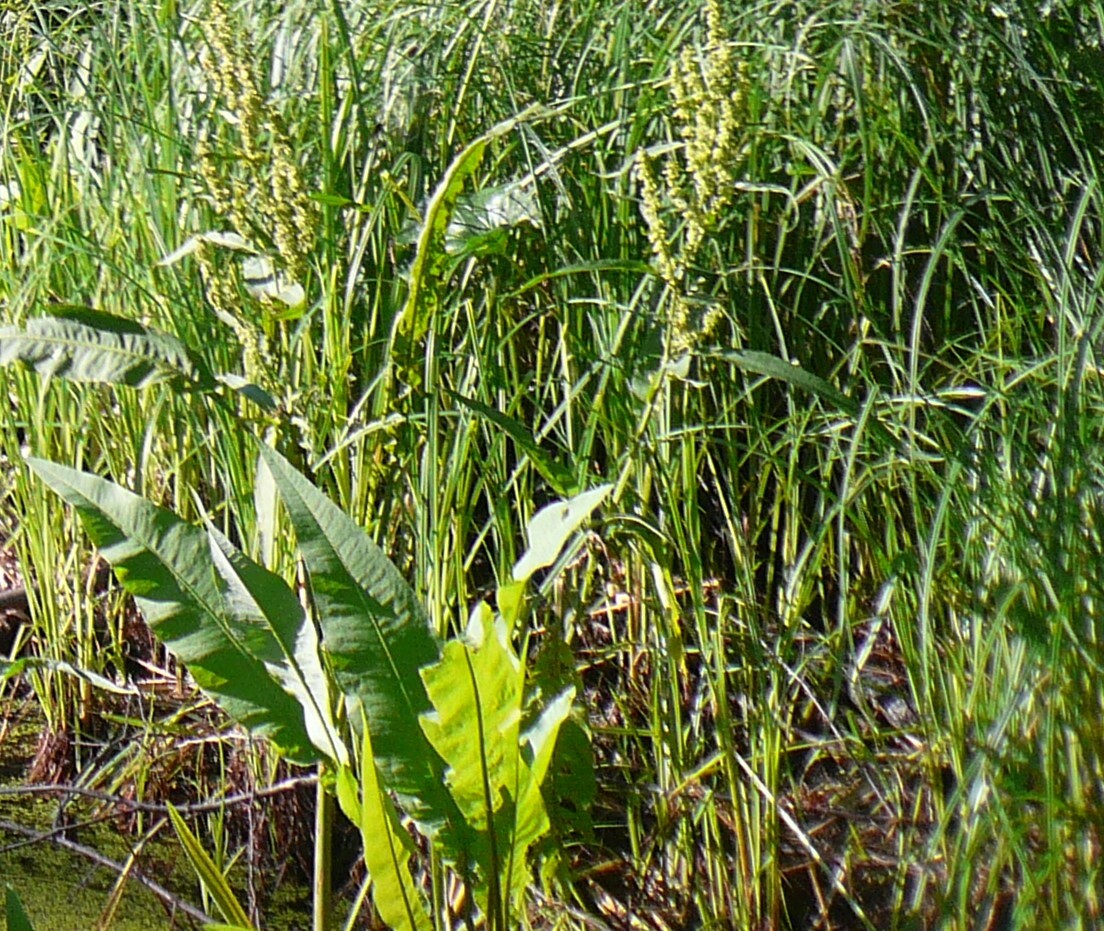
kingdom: Plantae
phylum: Tracheophyta
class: Magnoliopsida
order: Caryophyllales
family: Polygonaceae
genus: Rumex
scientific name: Rumex hydrolapathum
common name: Water dock
